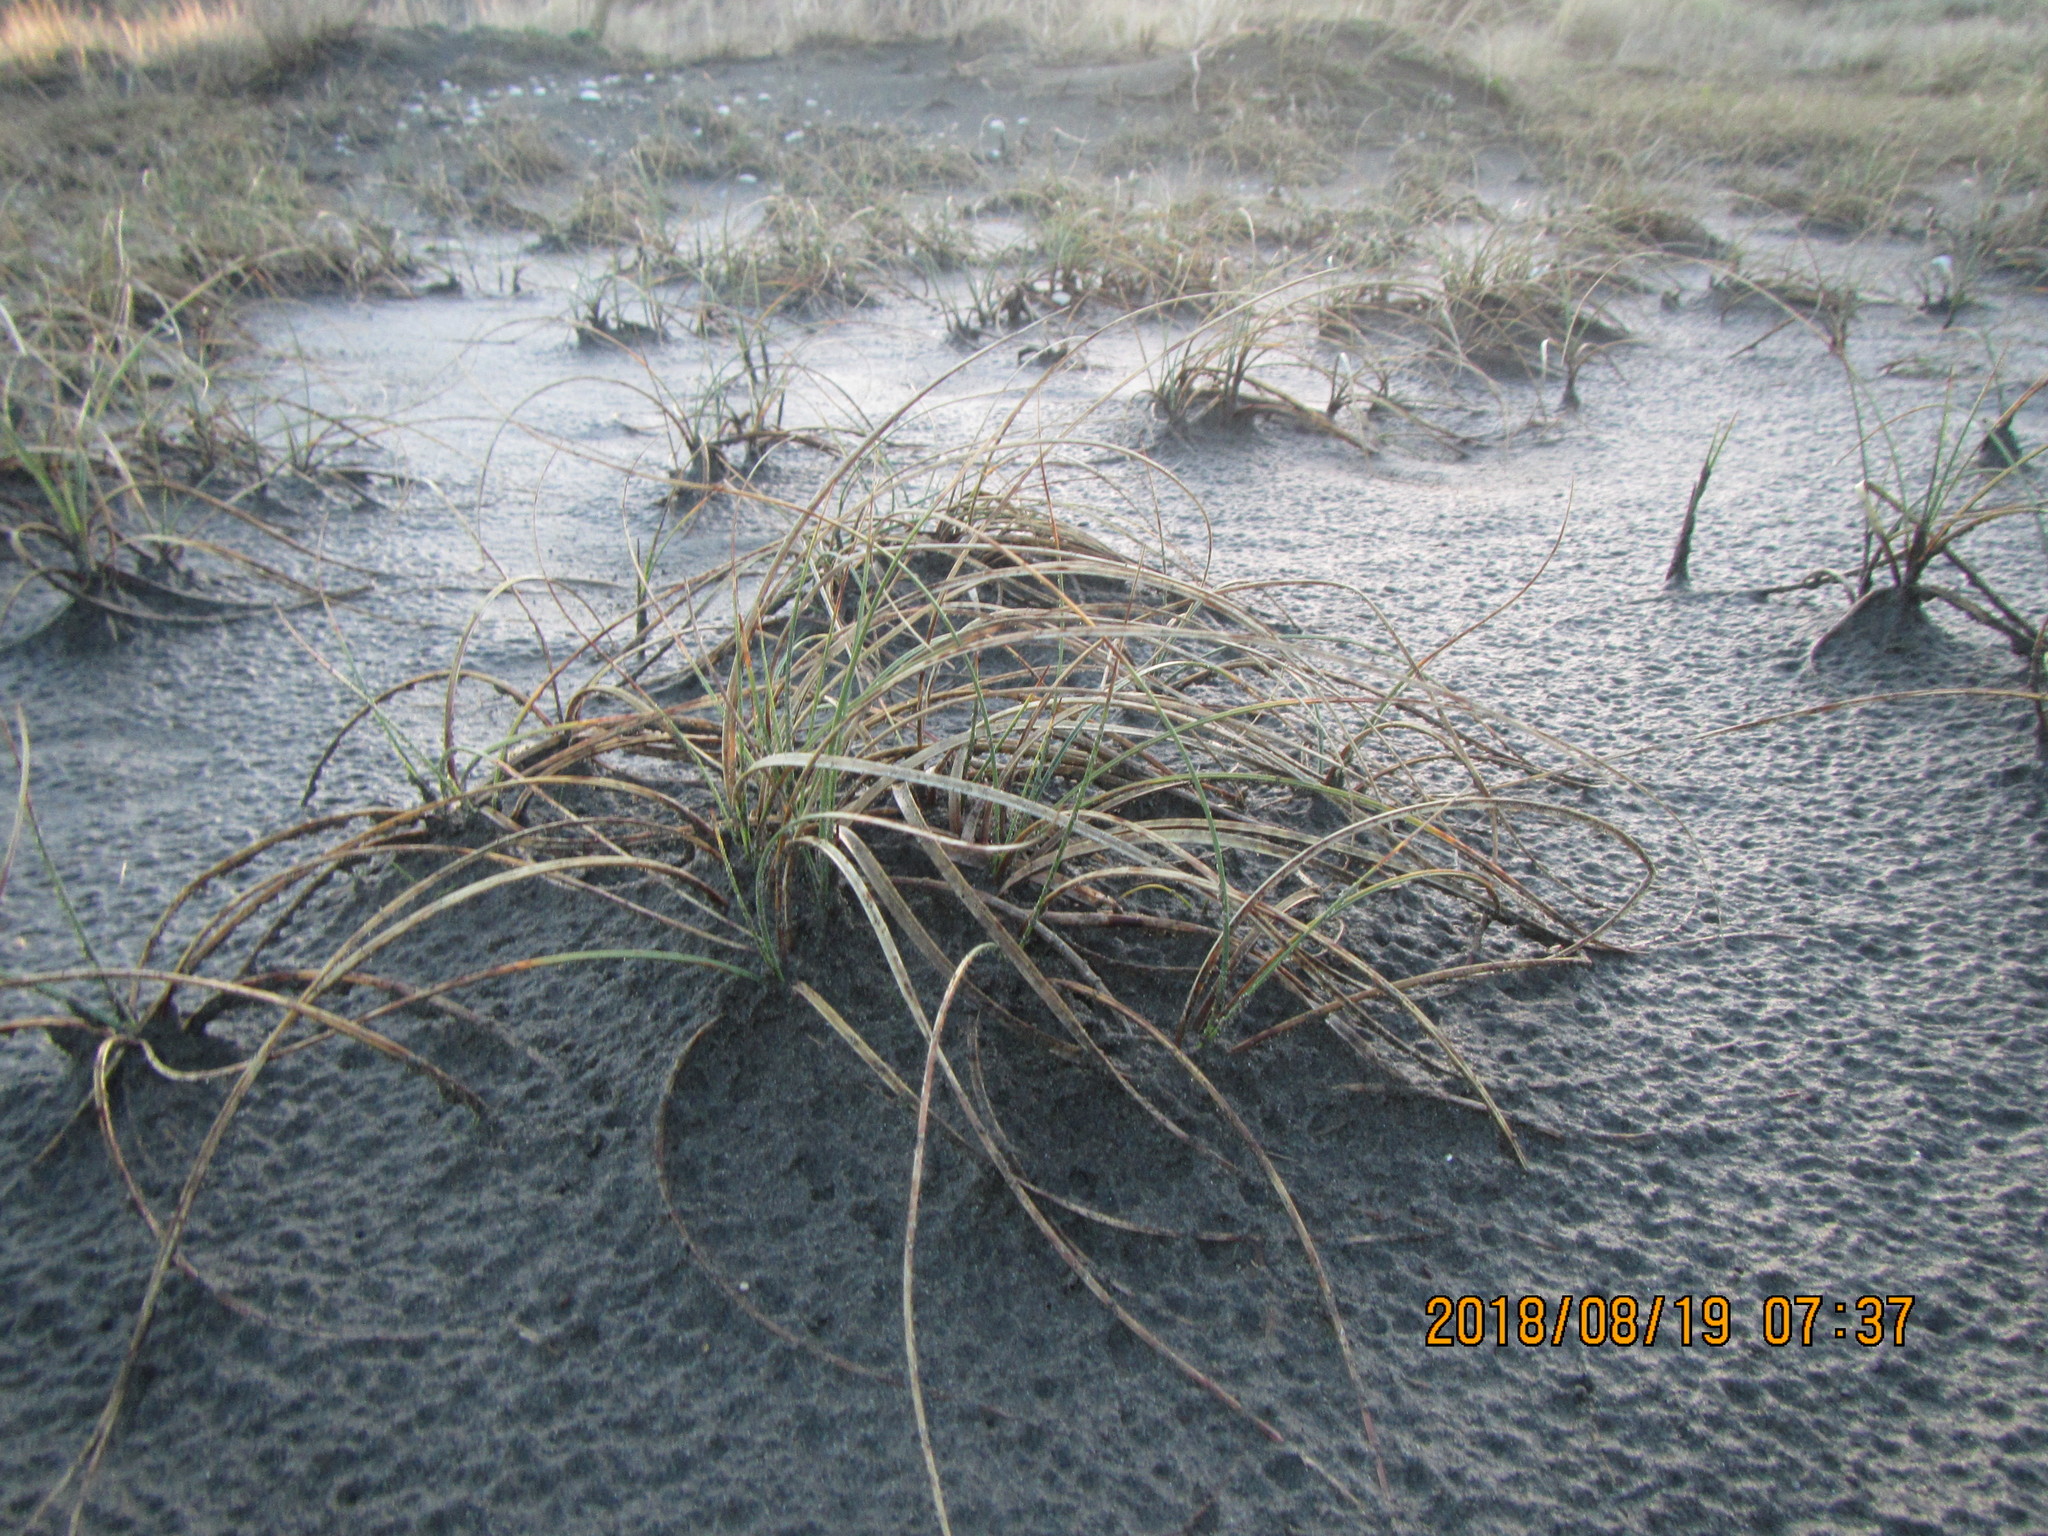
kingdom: Plantae
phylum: Tracheophyta
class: Liliopsida
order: Poales
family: Cyperaceae
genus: Carex
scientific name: Carex pumila
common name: Dwarf sedge
